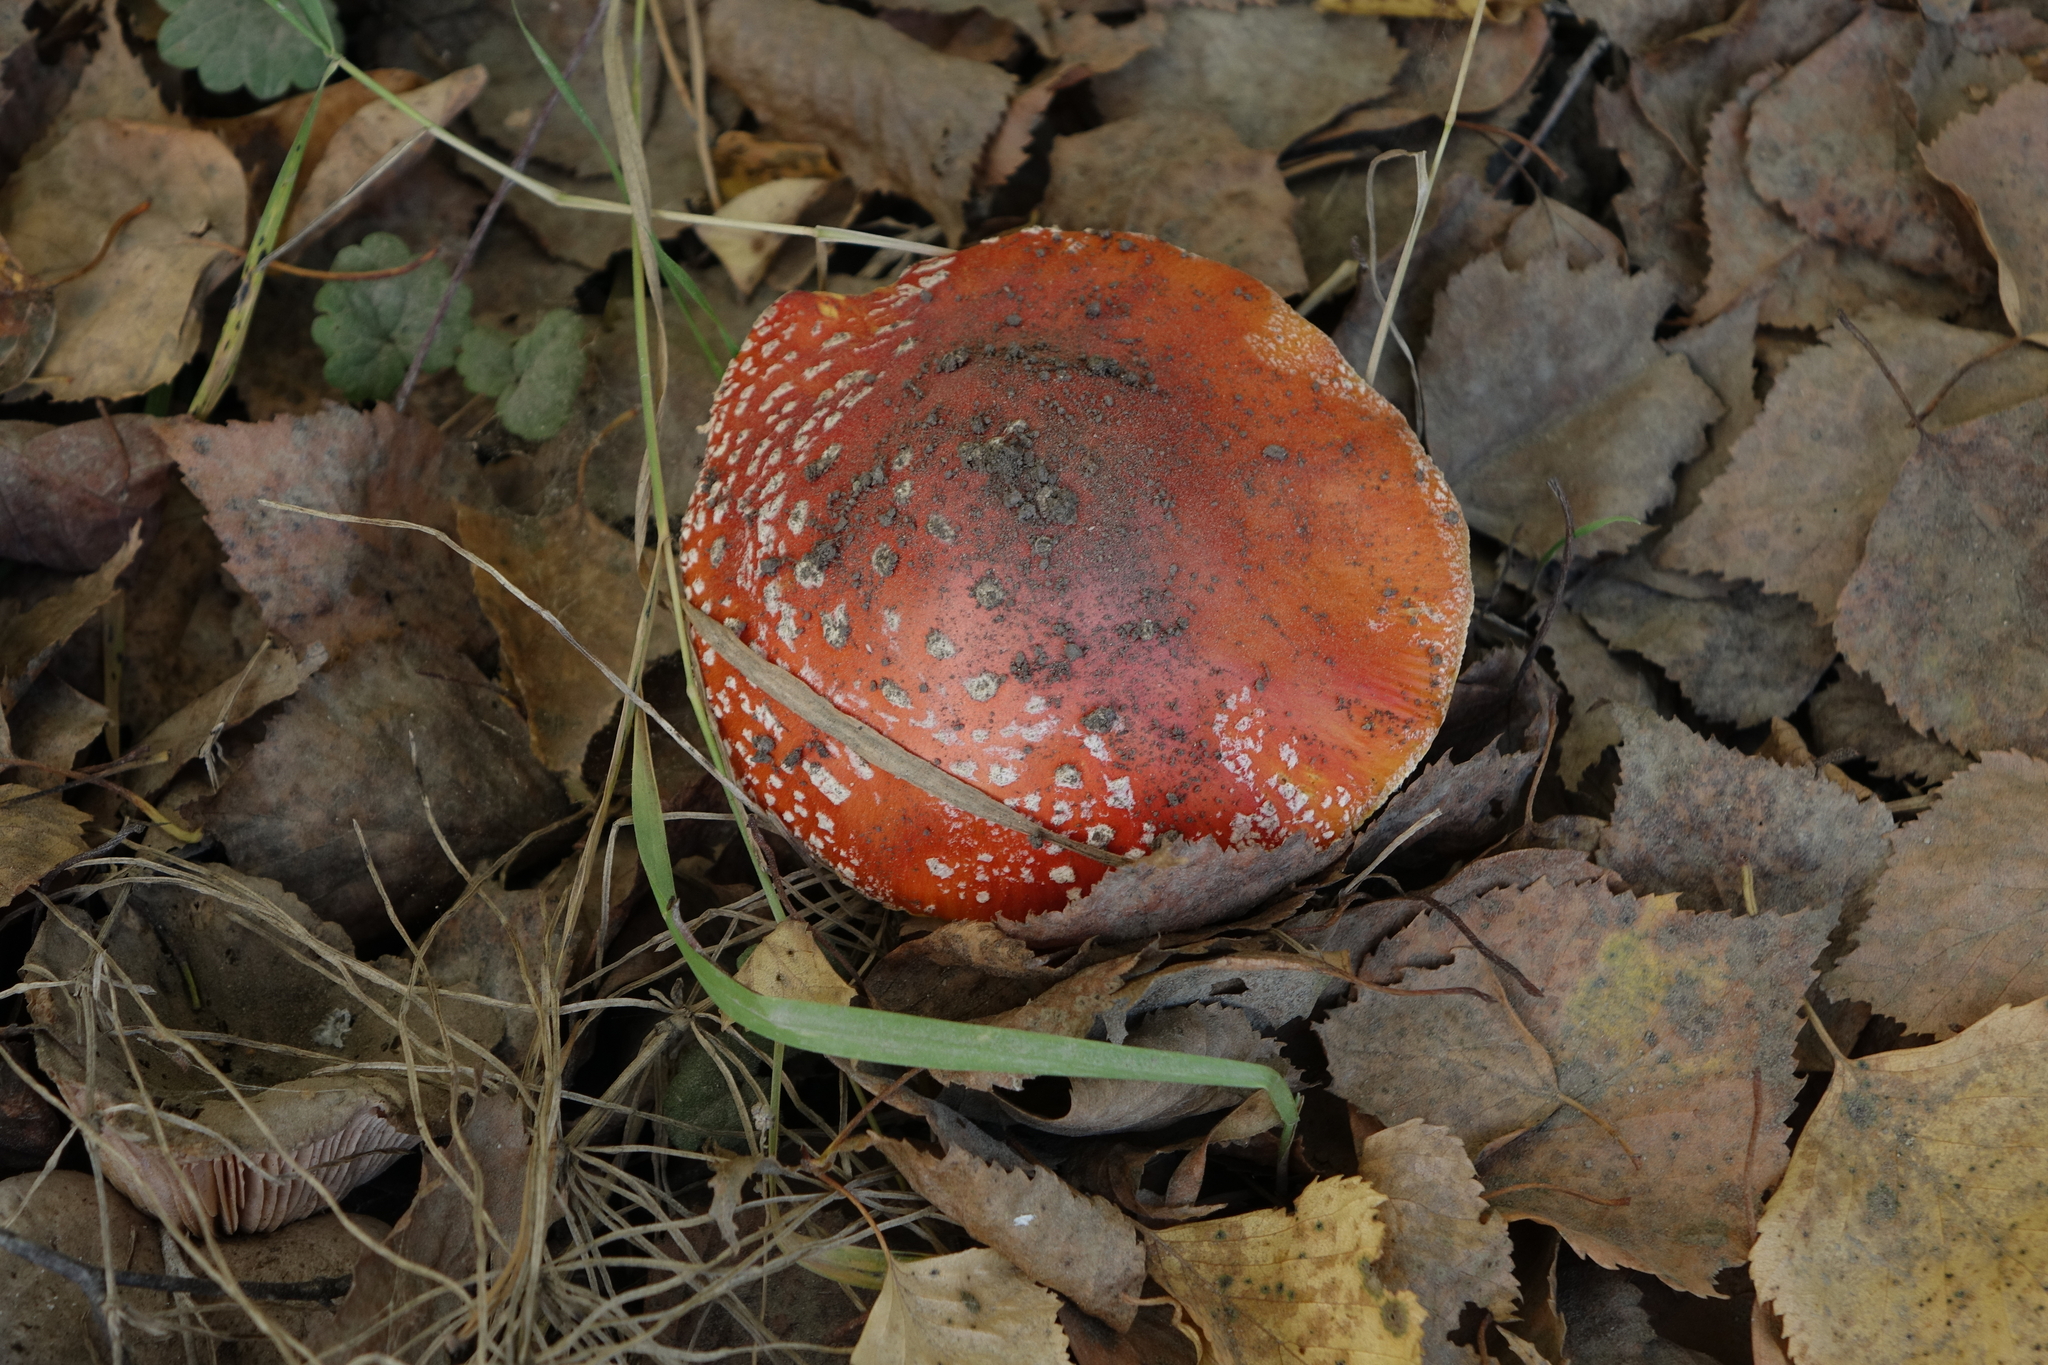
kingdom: Fungi
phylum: Basidiomycota
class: Agaricomycetes
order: Agaricales
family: Amanitaceae
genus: Amanita
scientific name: Amanita muscaria
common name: Fly agaric
